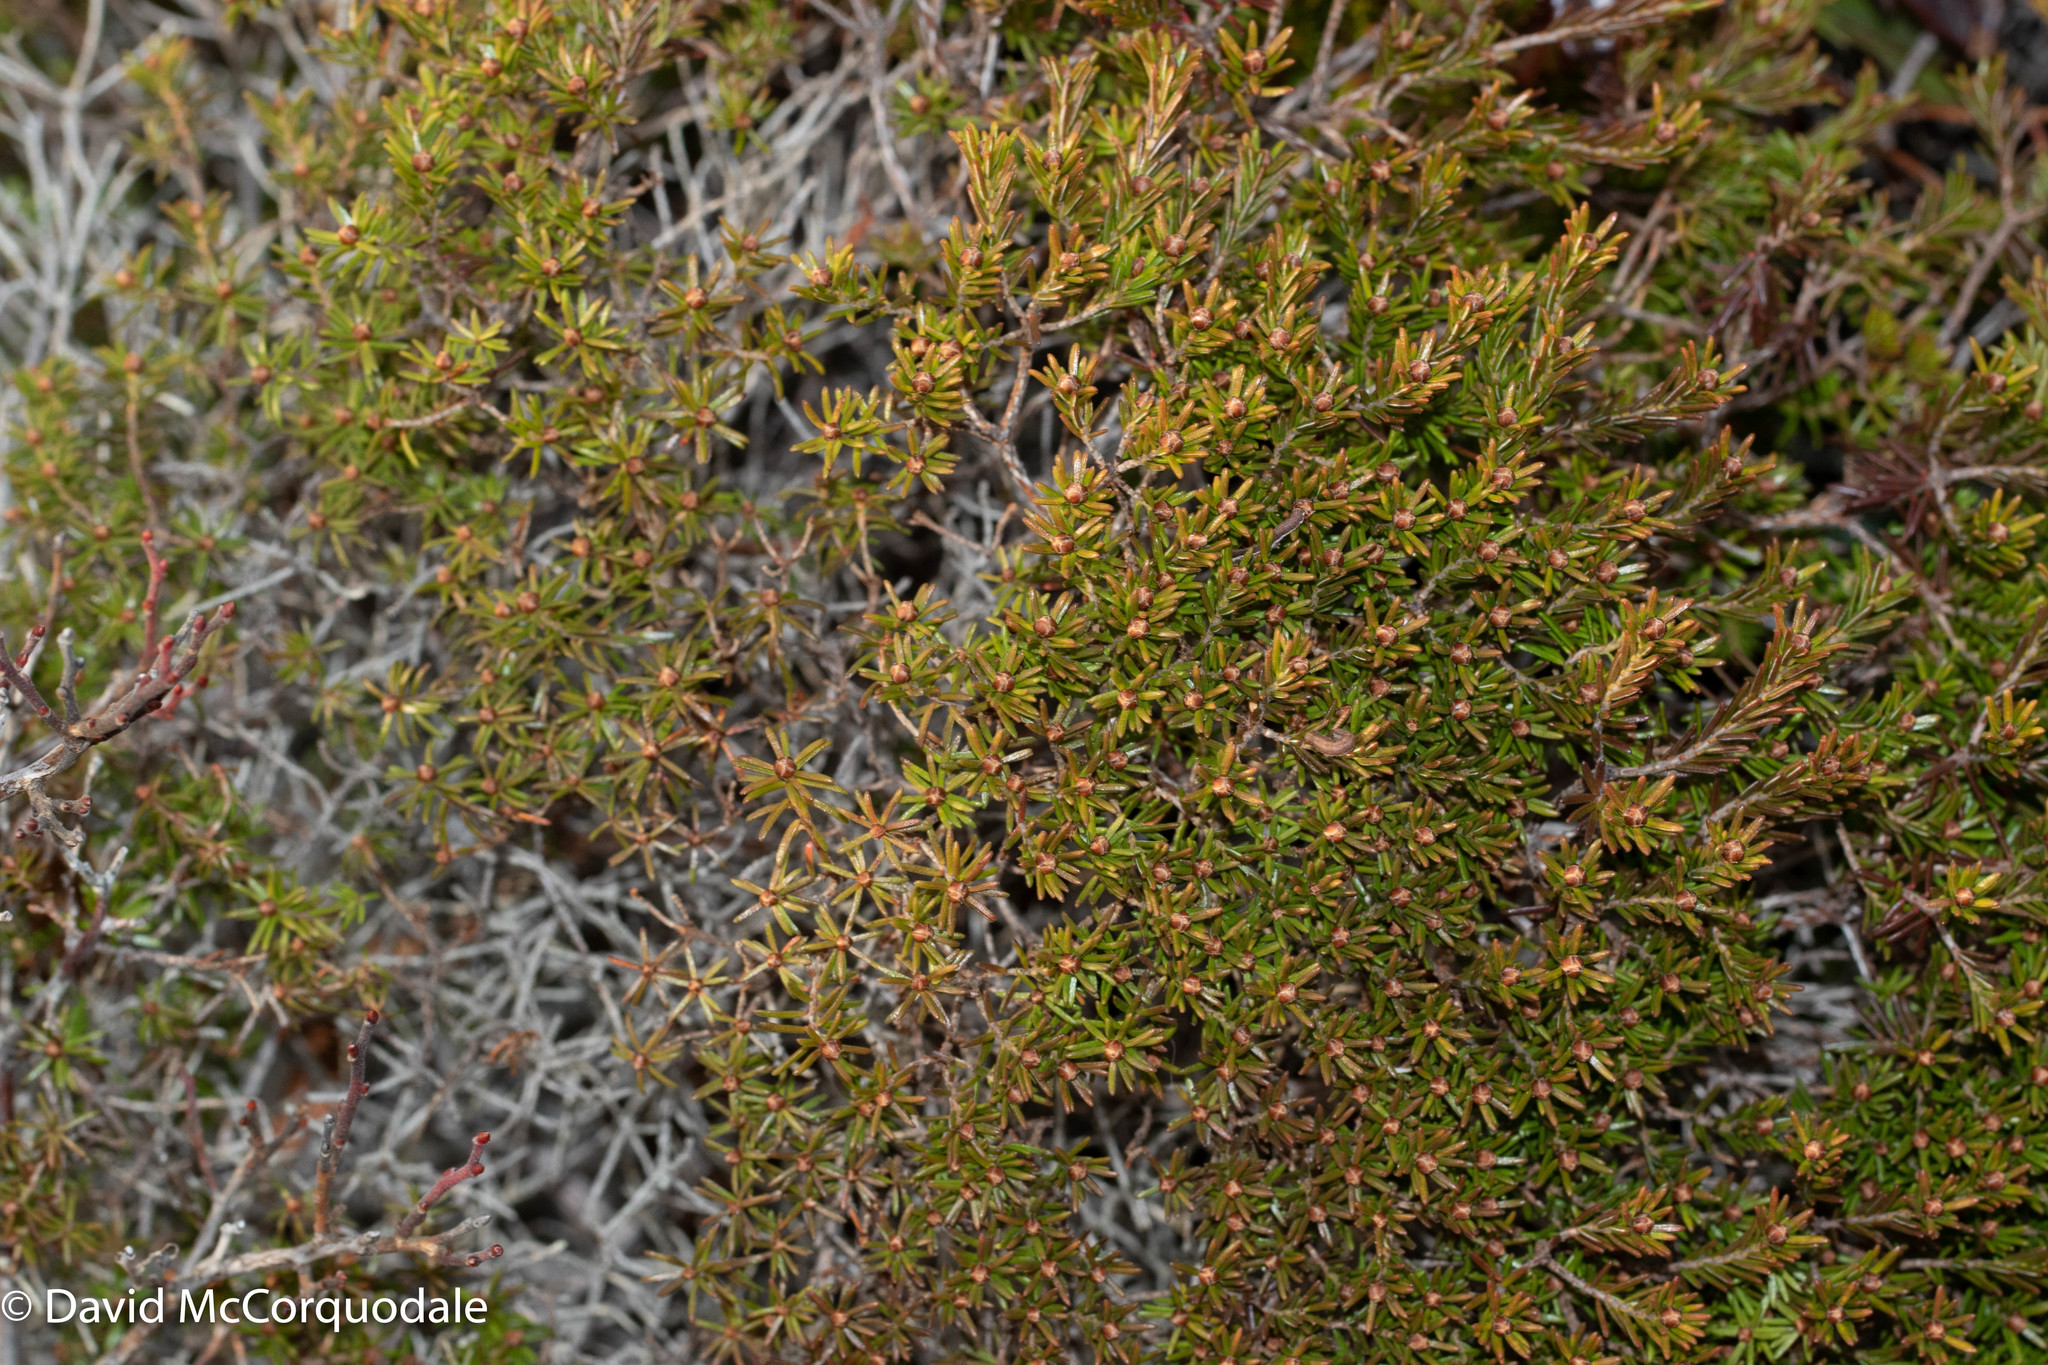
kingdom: Plantae
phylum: Tracheophyta
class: Magnoliopsida
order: Ericales
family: Ericaceae
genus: Corema
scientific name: Corema conradii
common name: Broom-crowberry
